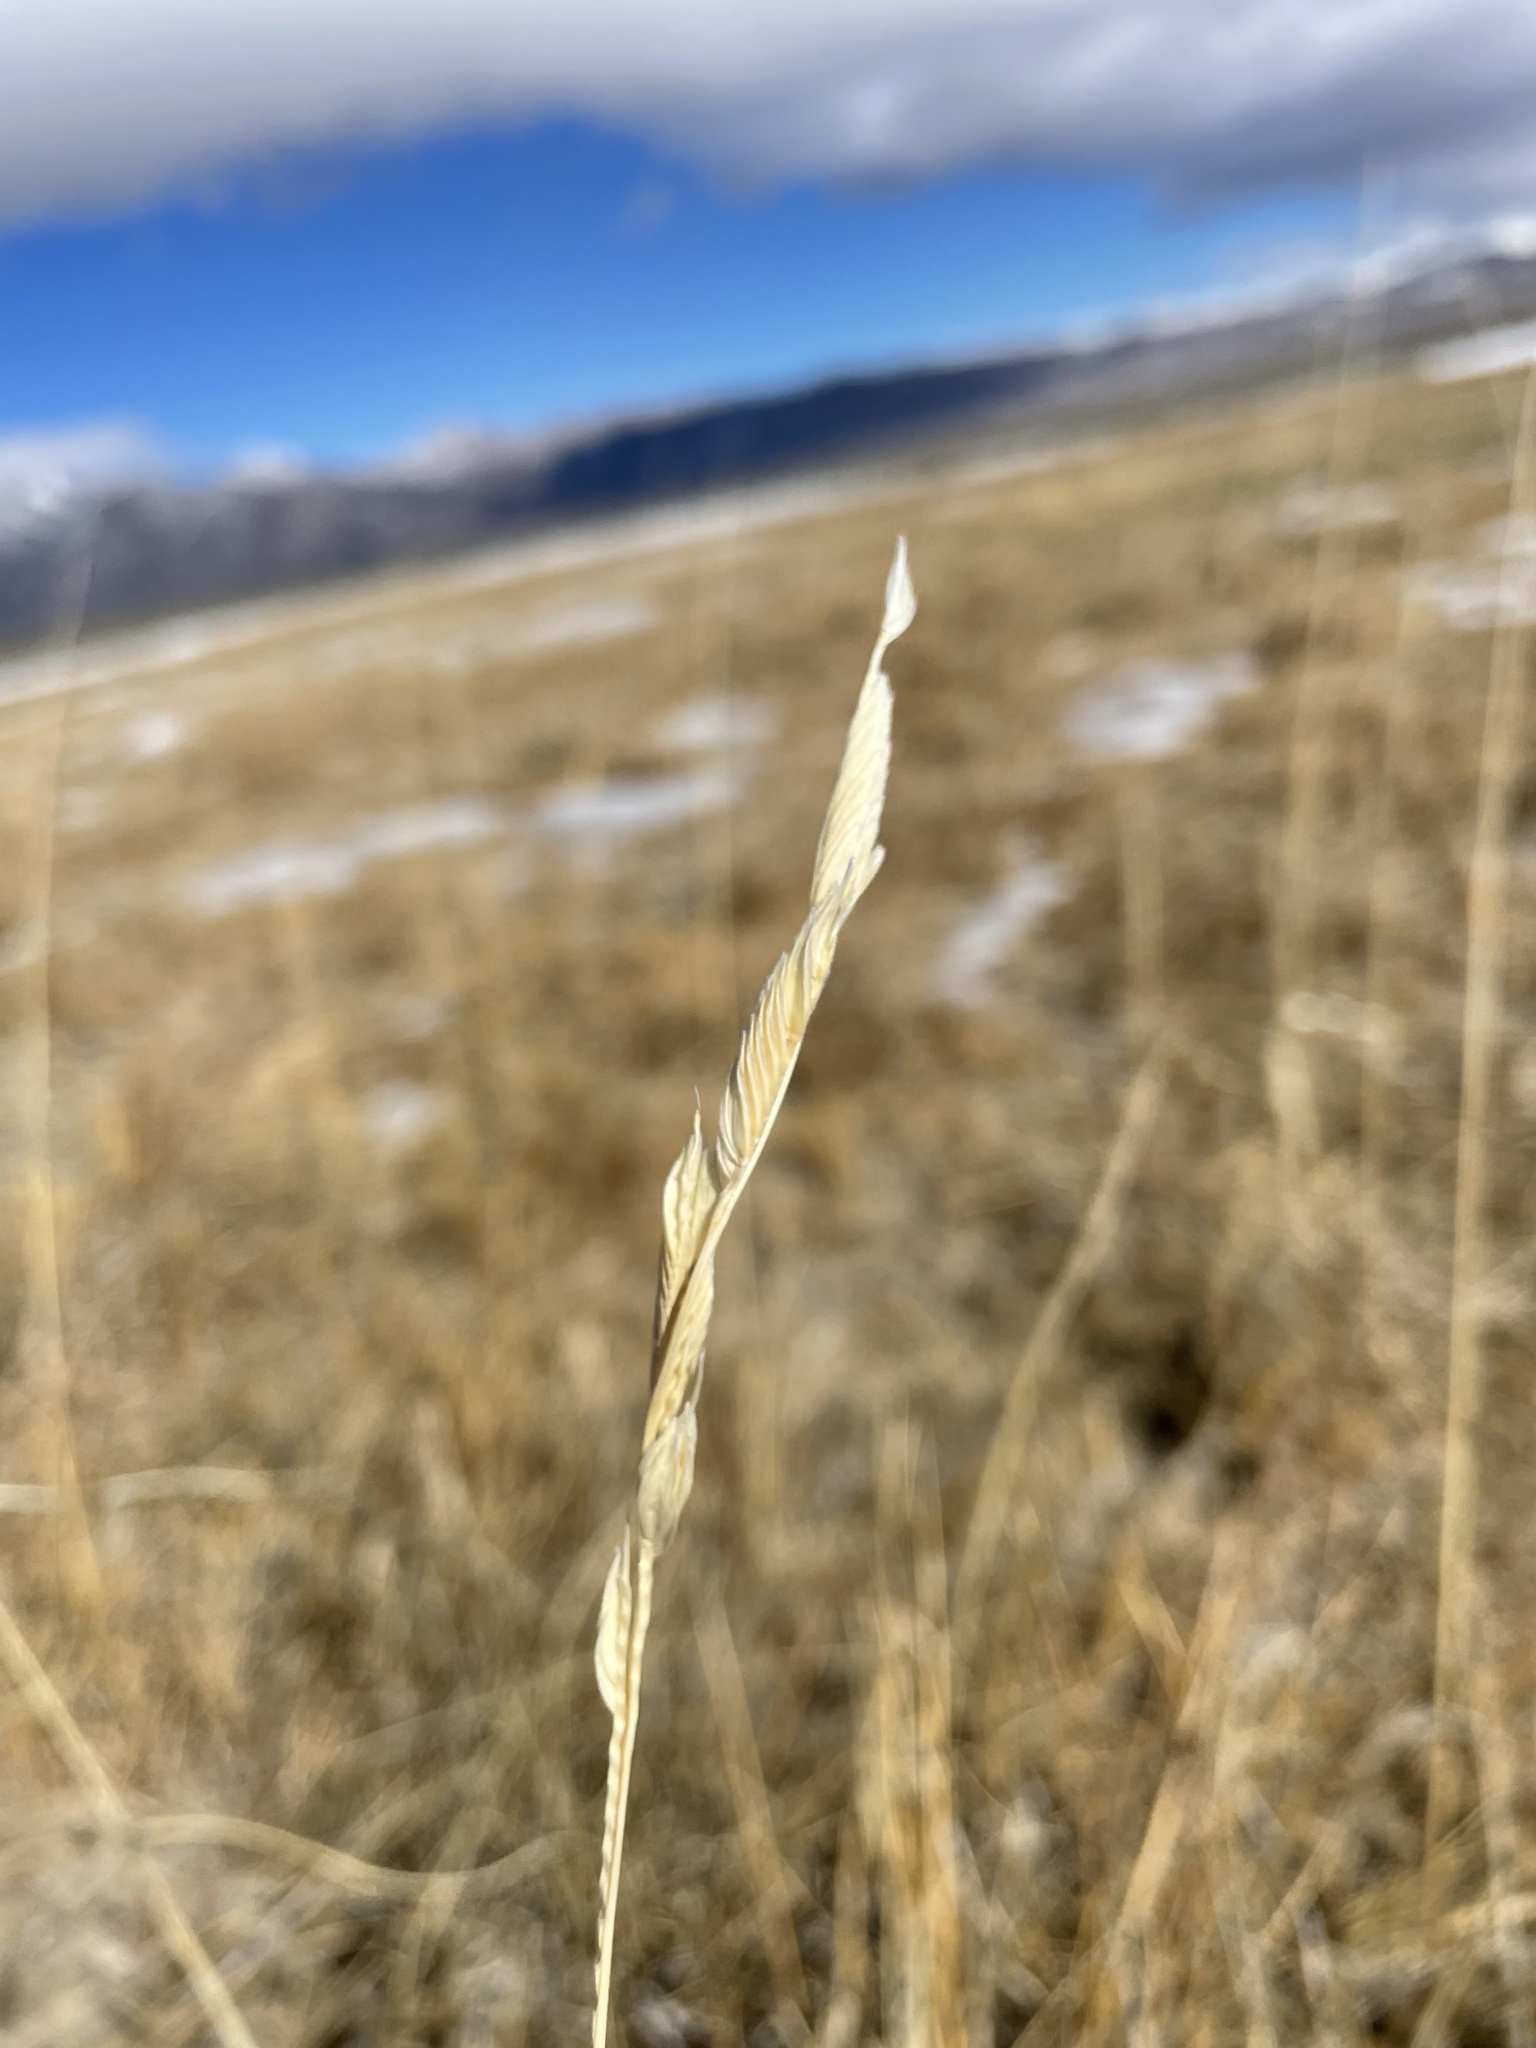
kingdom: Plantae
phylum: Tracheophyta
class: Liliopsida
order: Poales
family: Poaceae
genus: Sporobolus
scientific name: Sporobolus hookerianus
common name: Alkali cordgrass
